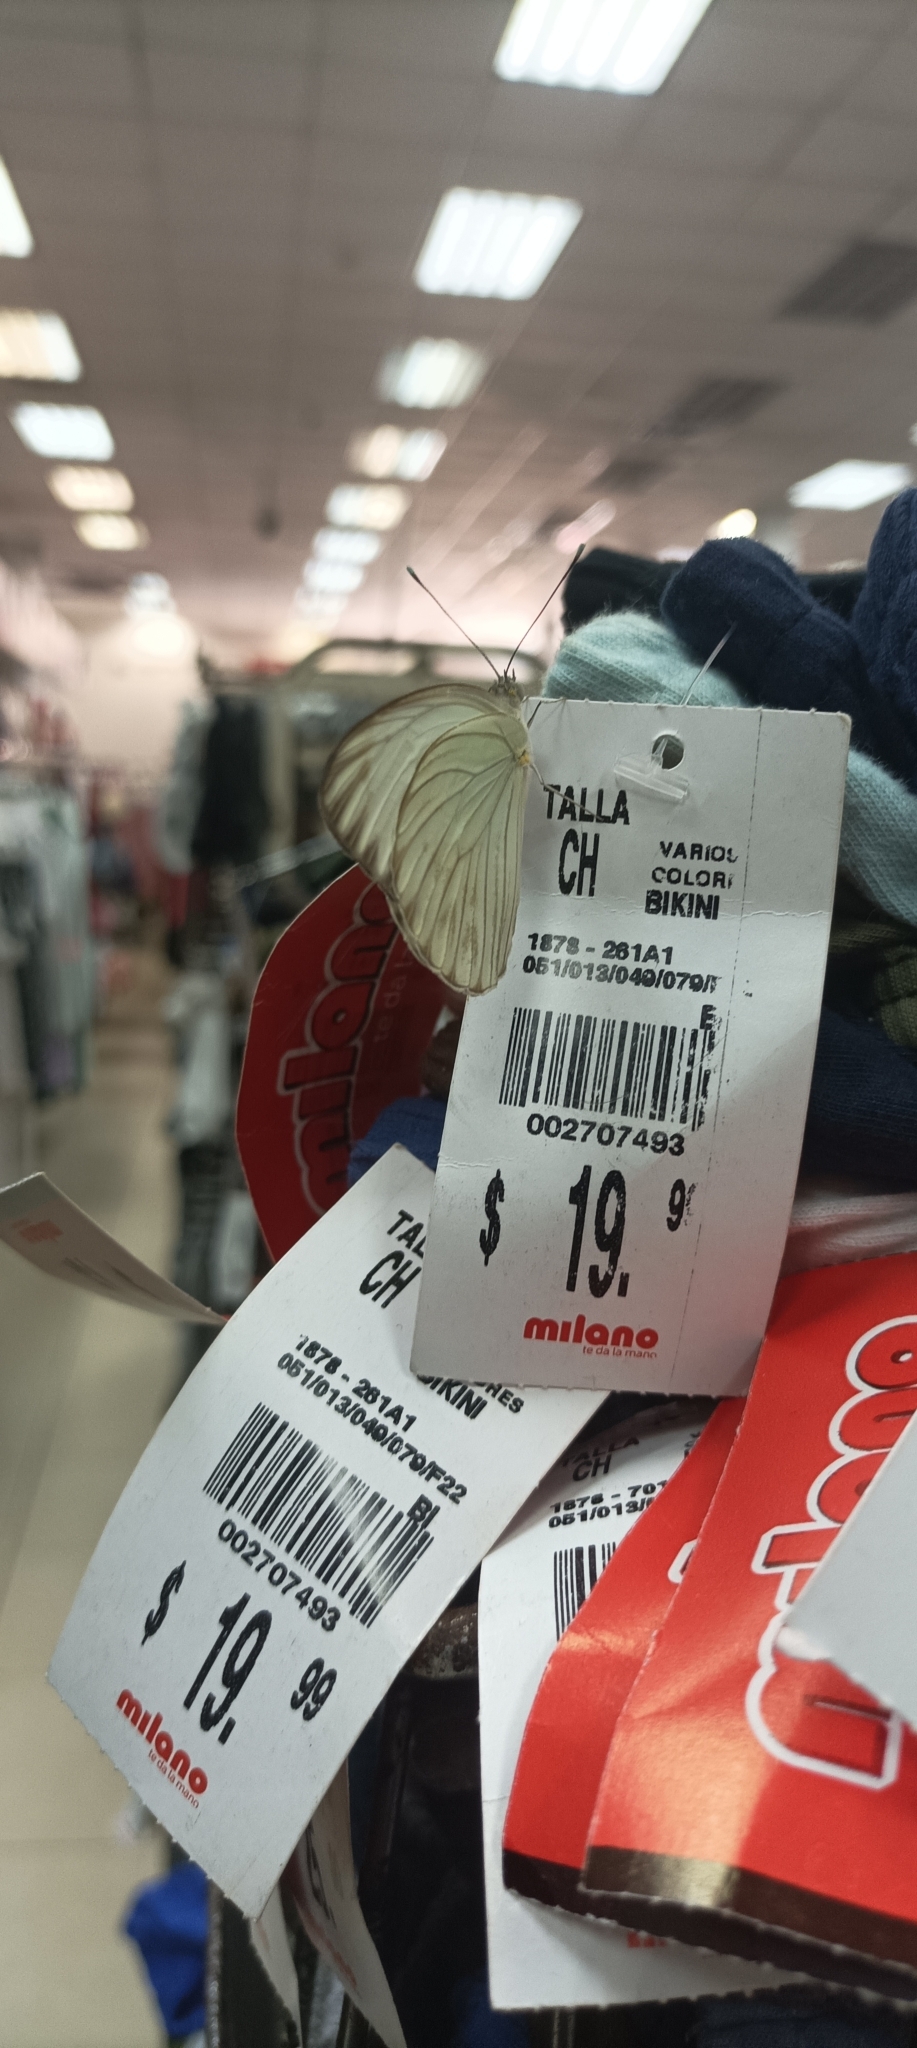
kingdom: Animalia
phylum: Arthropoda
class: Insecta
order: Lepidoptera
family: Pieridae
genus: Ascia
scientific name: Ascia monuste
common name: Great southern white
